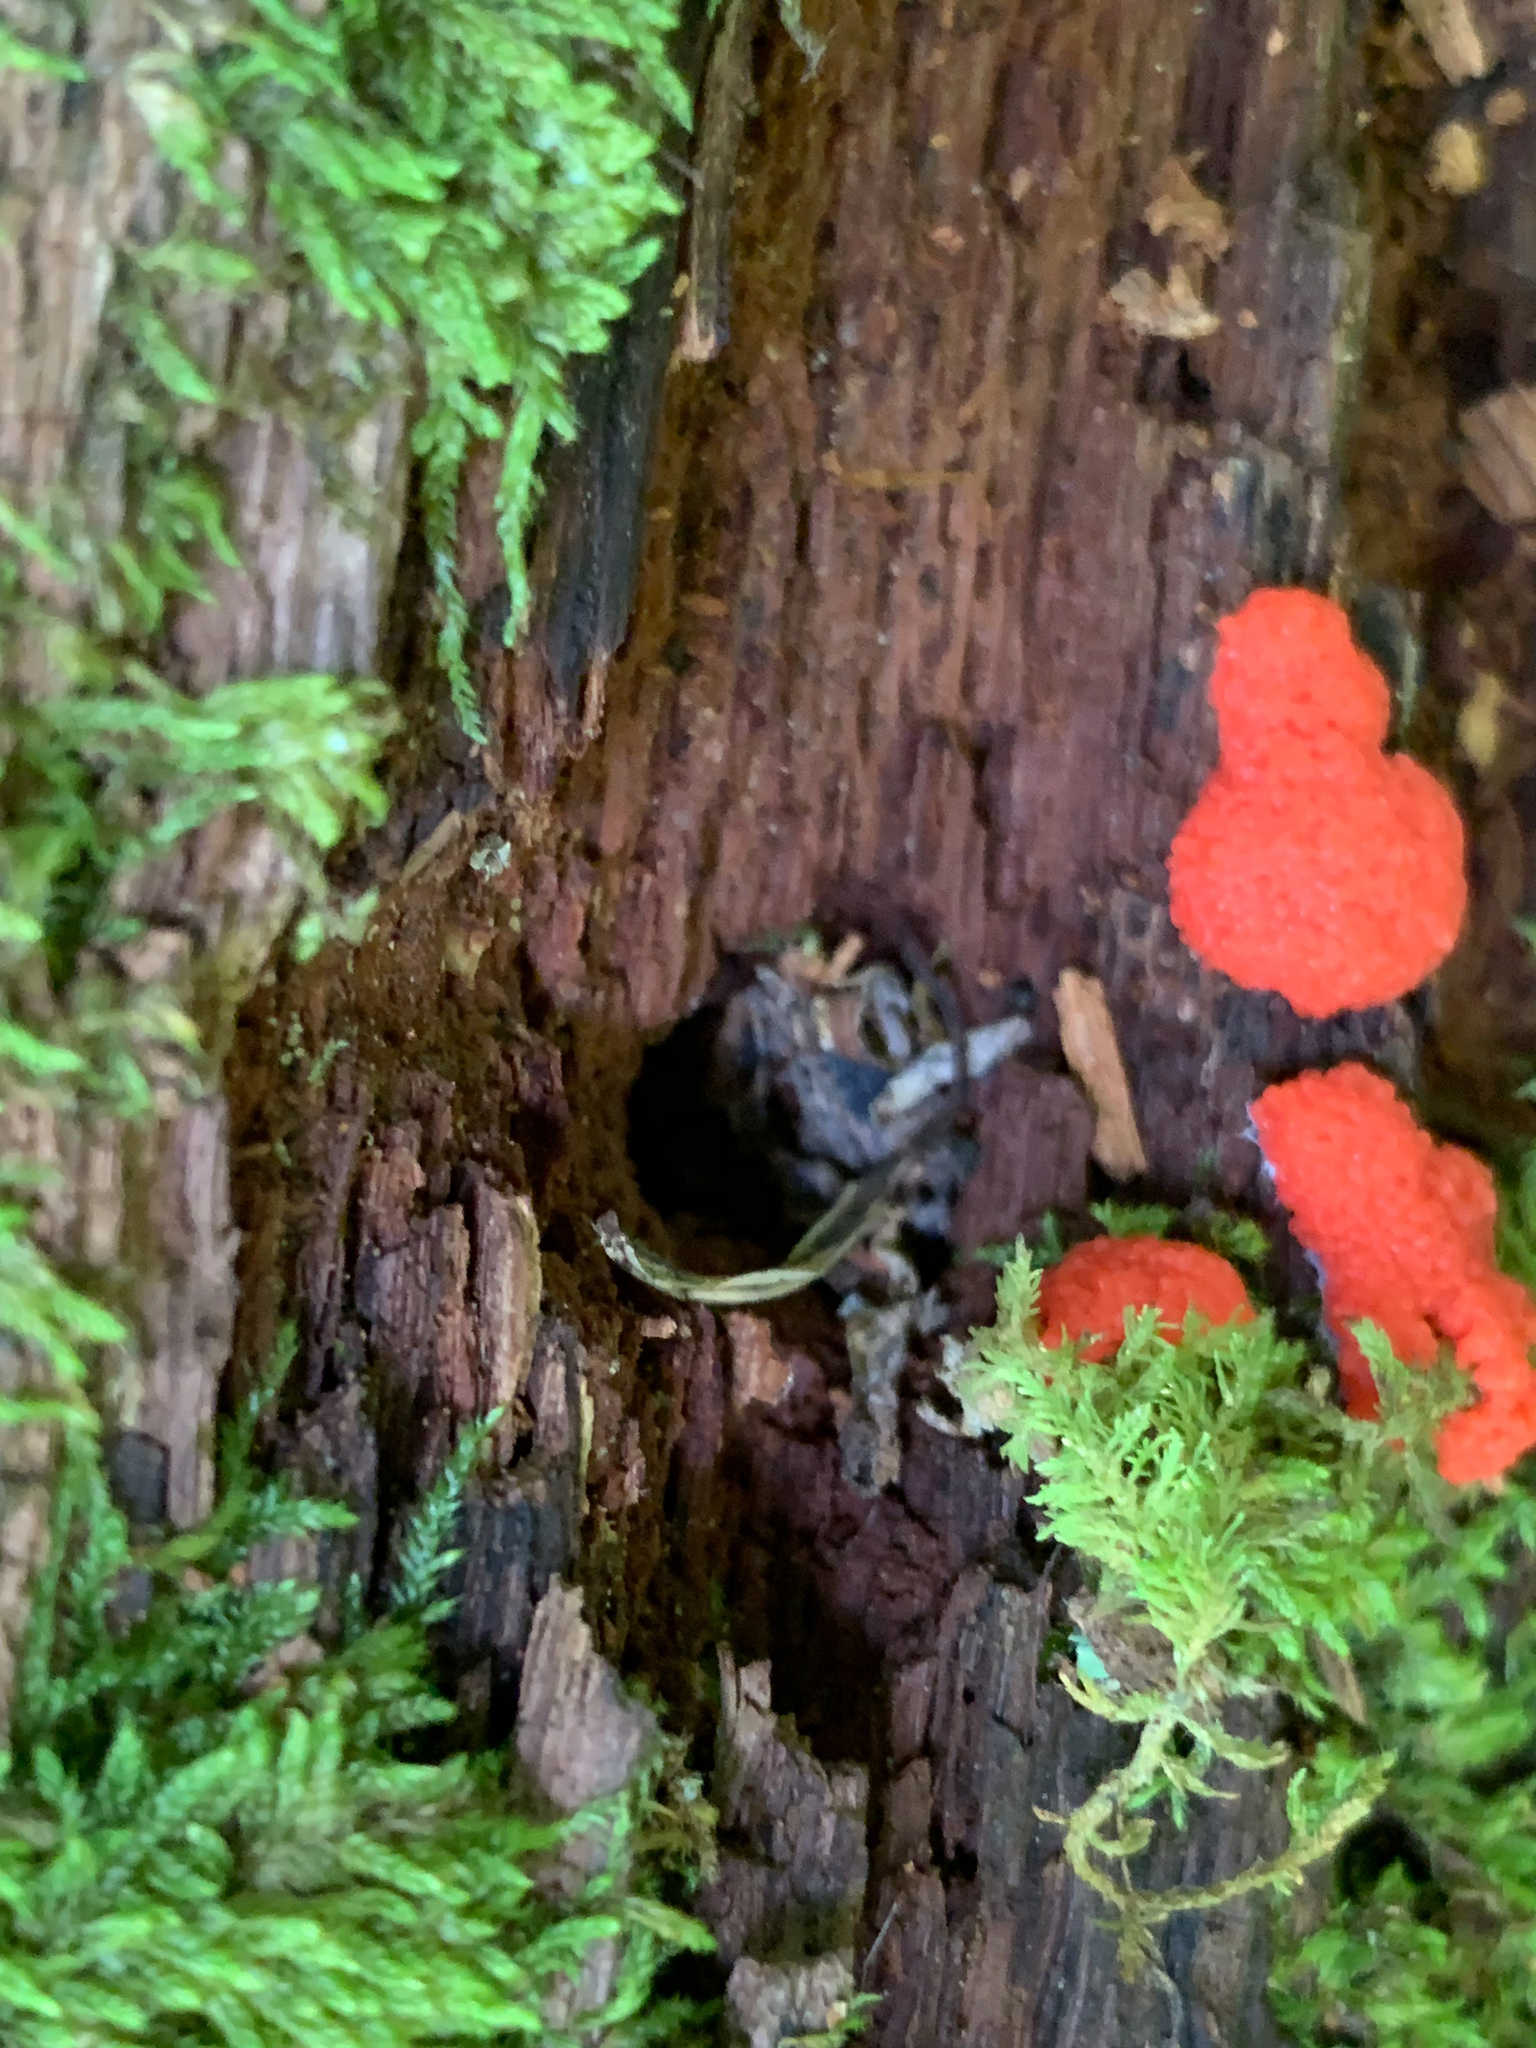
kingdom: Protozoa
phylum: Mycetozoa
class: Myxomycetes
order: Cribrariales
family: Tubiferaceae
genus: Tubifera
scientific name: Tubifera ferruginosa
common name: Red raspberry slime mold
